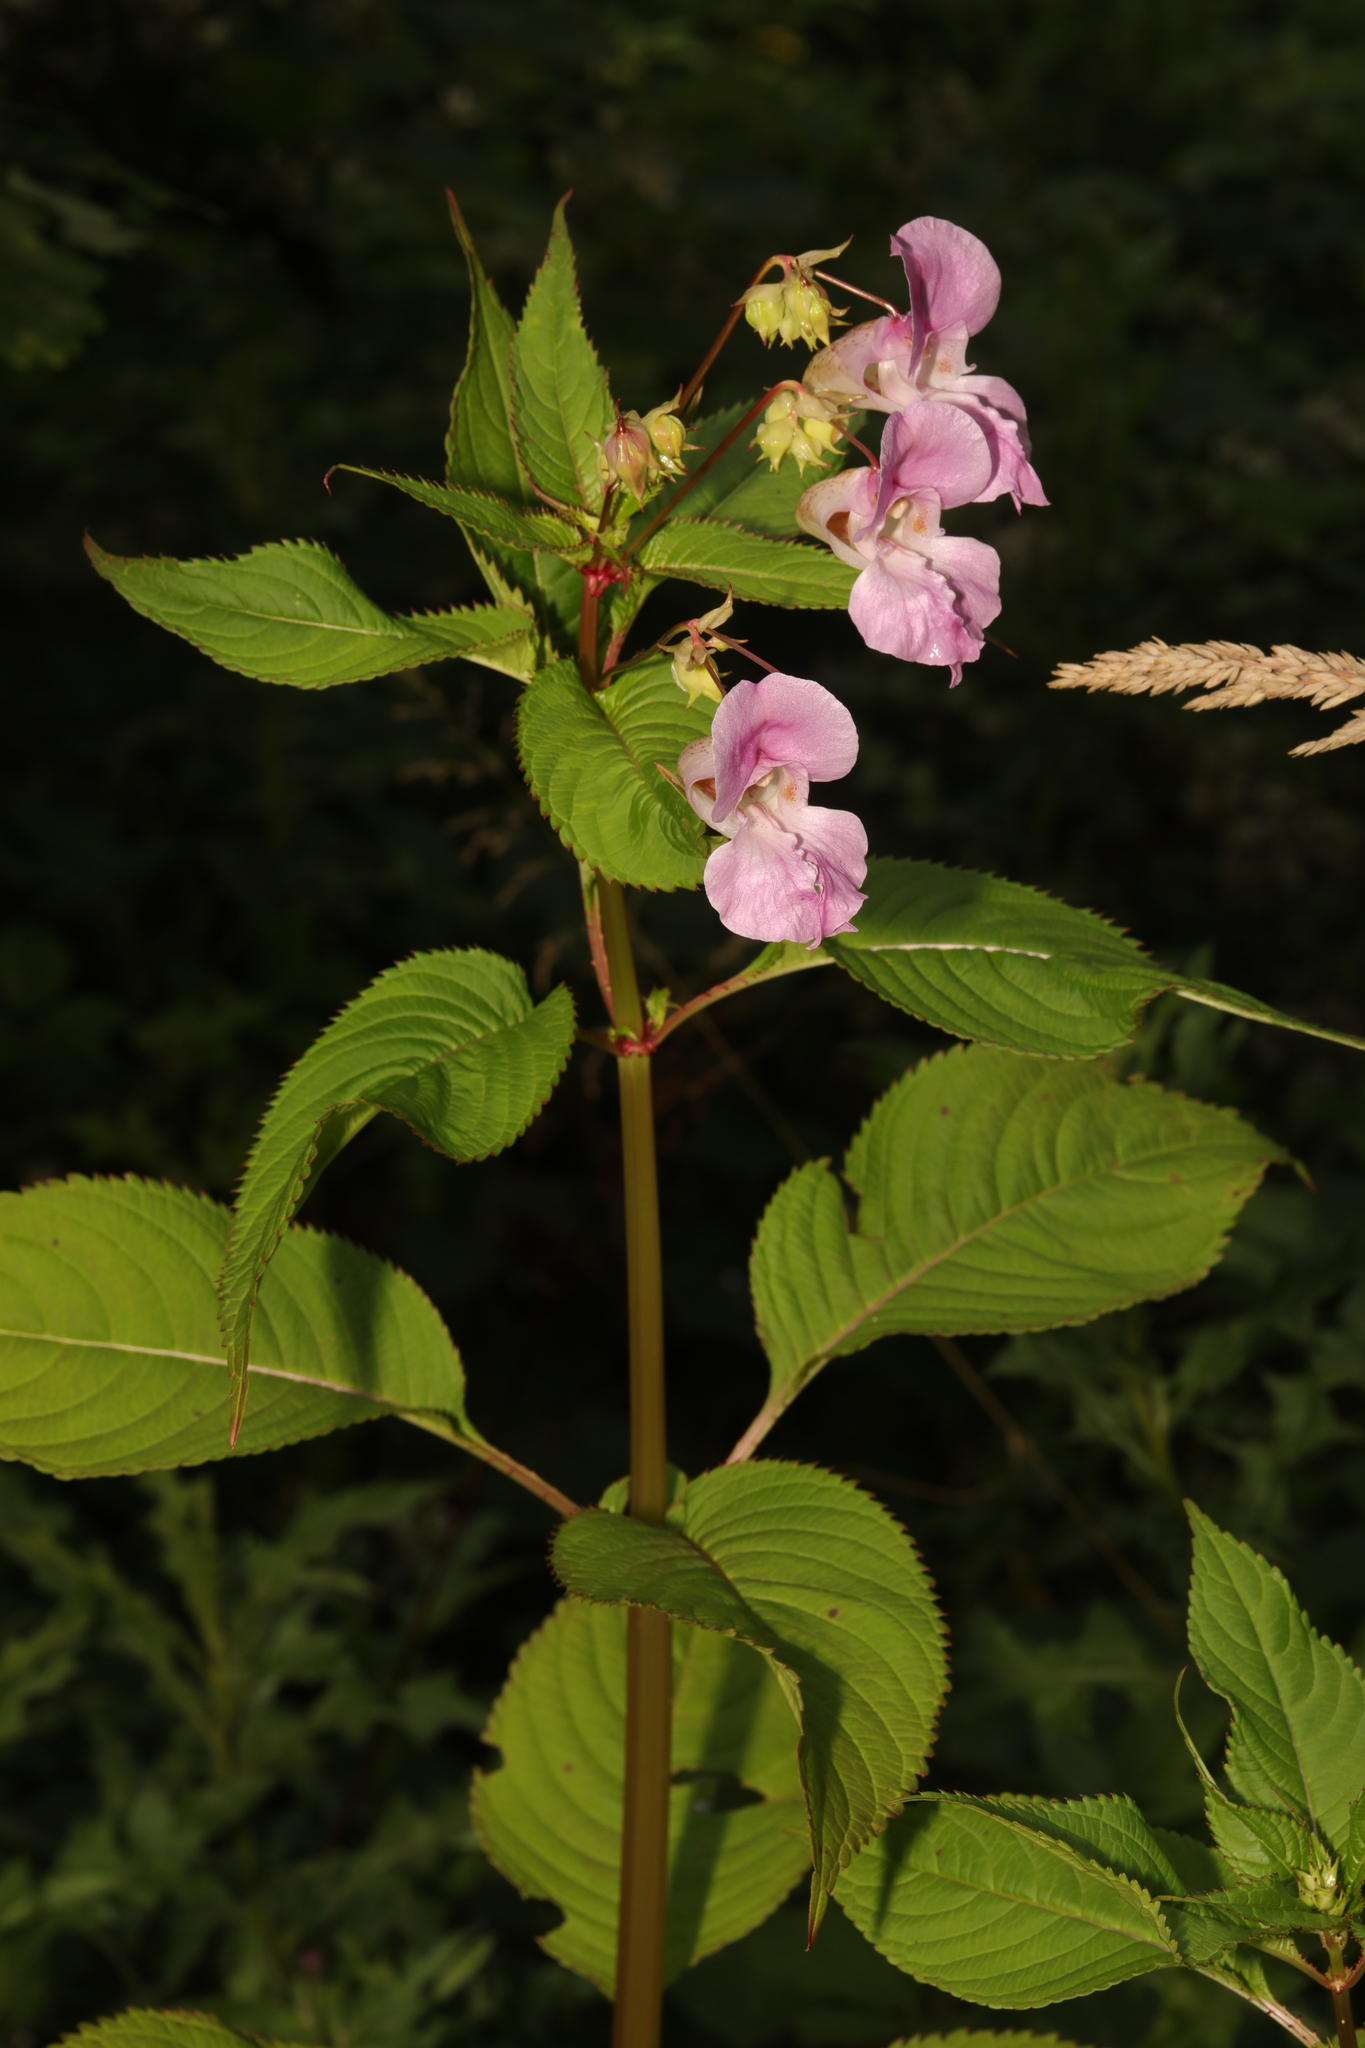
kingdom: Plantae
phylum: Tracheophyta
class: Magnoliopsida
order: Ericales
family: Balsaminaceae
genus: Impatiens
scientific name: Impatiens glandulifera
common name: Himalayan balsam
